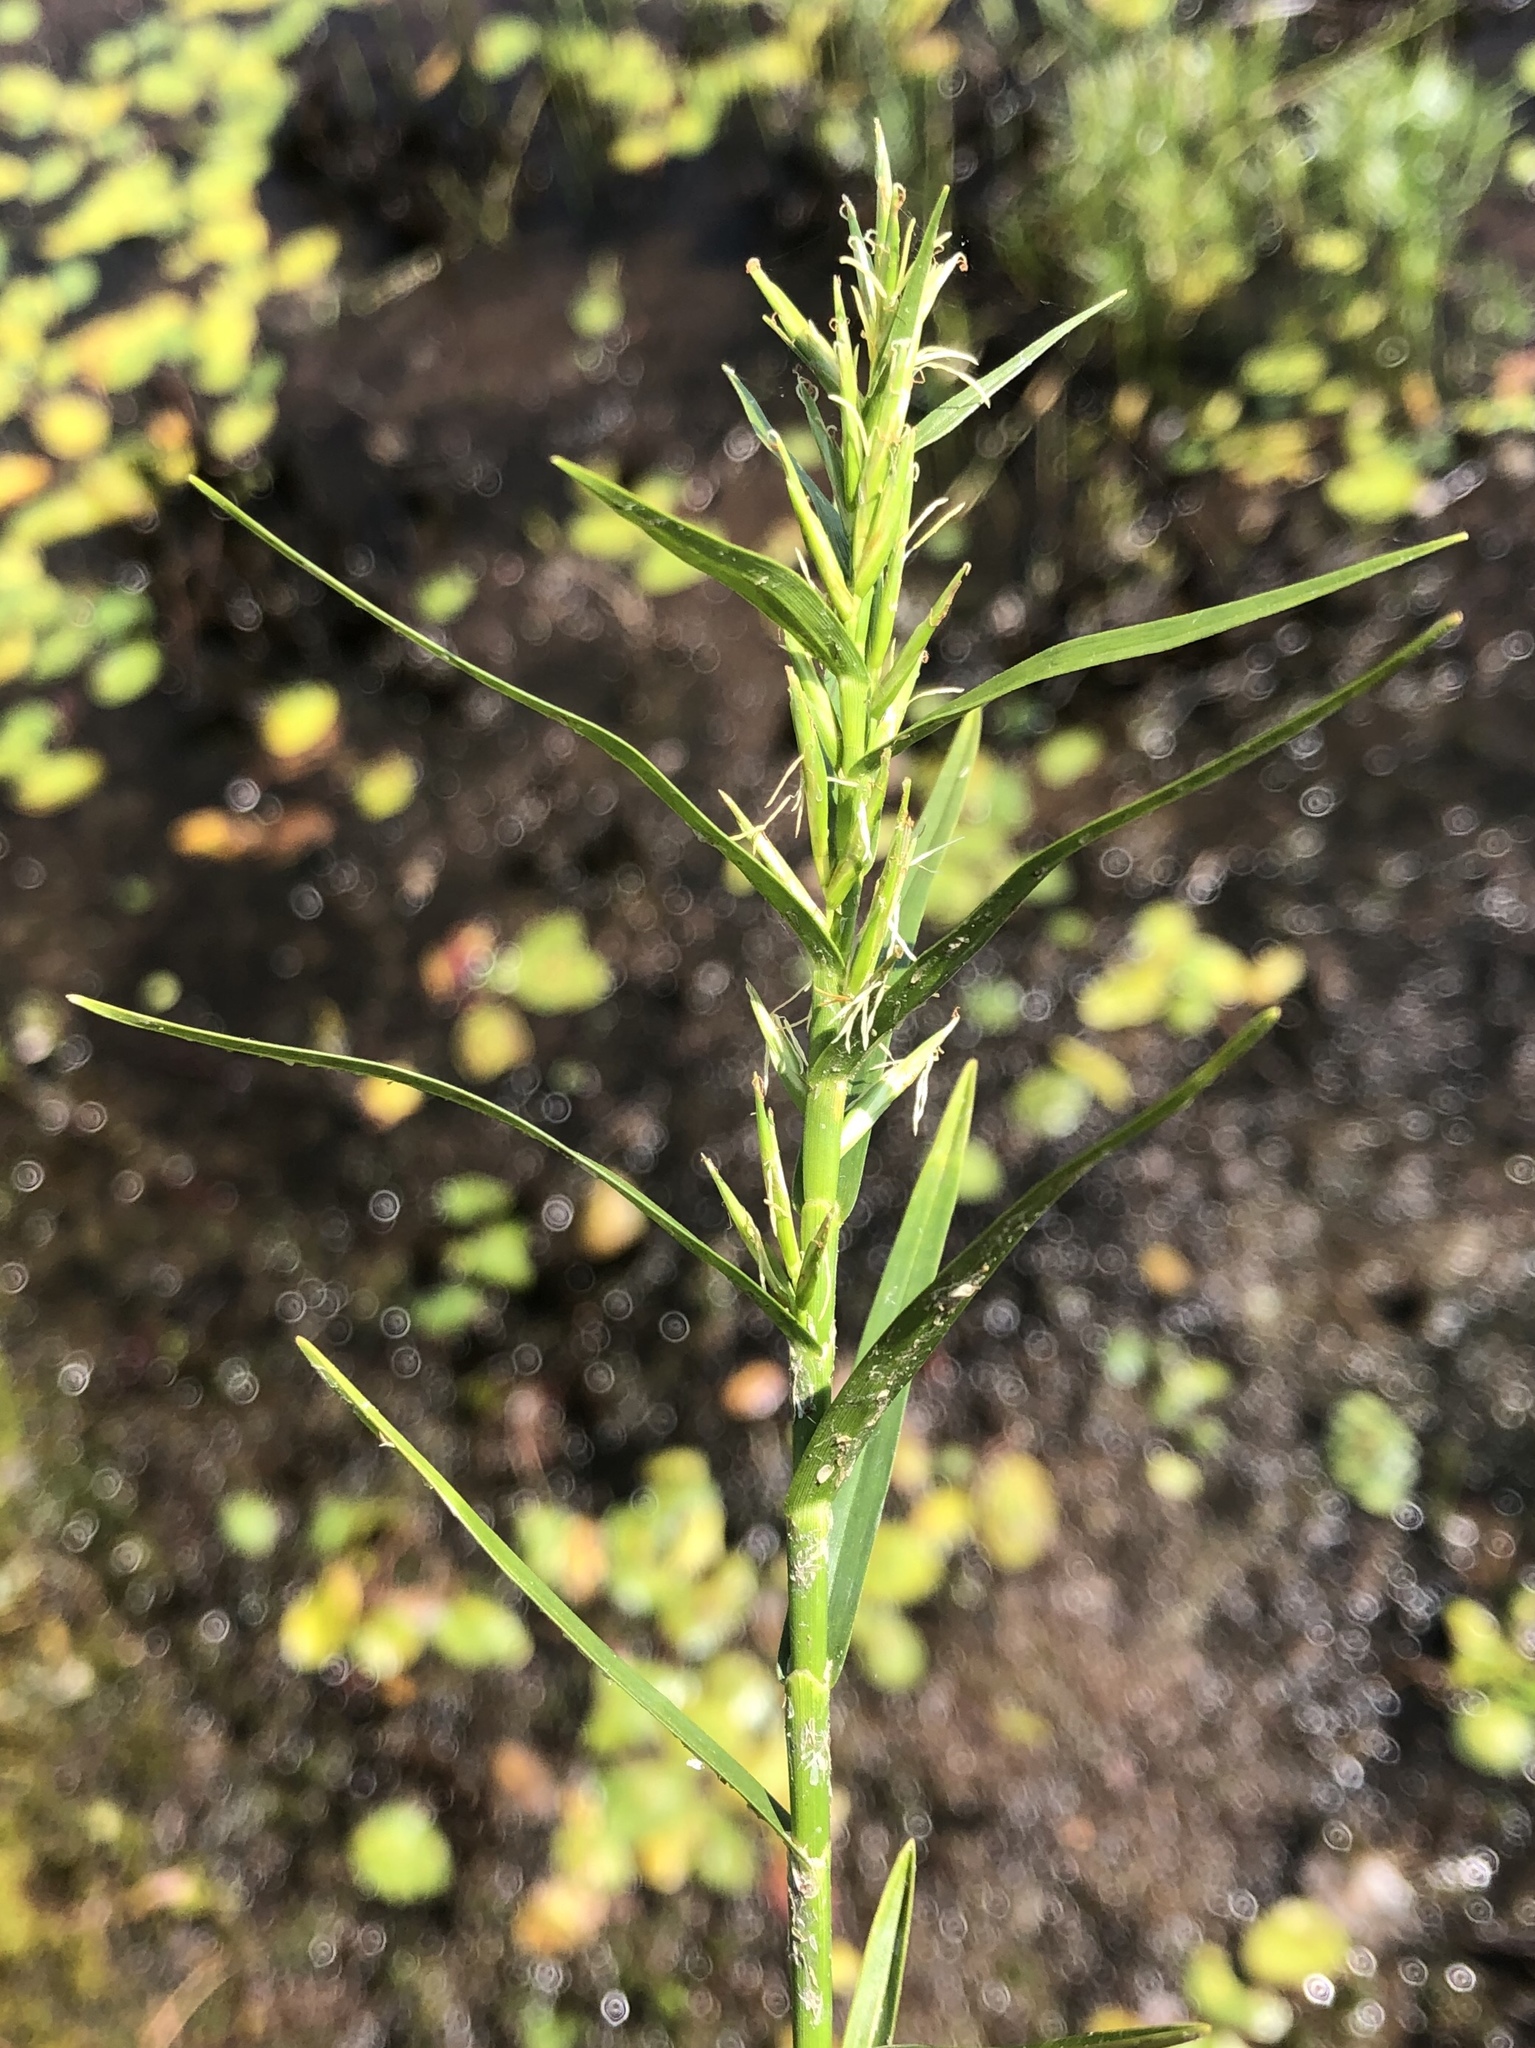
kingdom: Plantae
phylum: Tracheophyta
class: Liliopsida
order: Poales
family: Cyperaceae
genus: Dulichium
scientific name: Dulichium arundinaceum
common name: Three-way sedge
